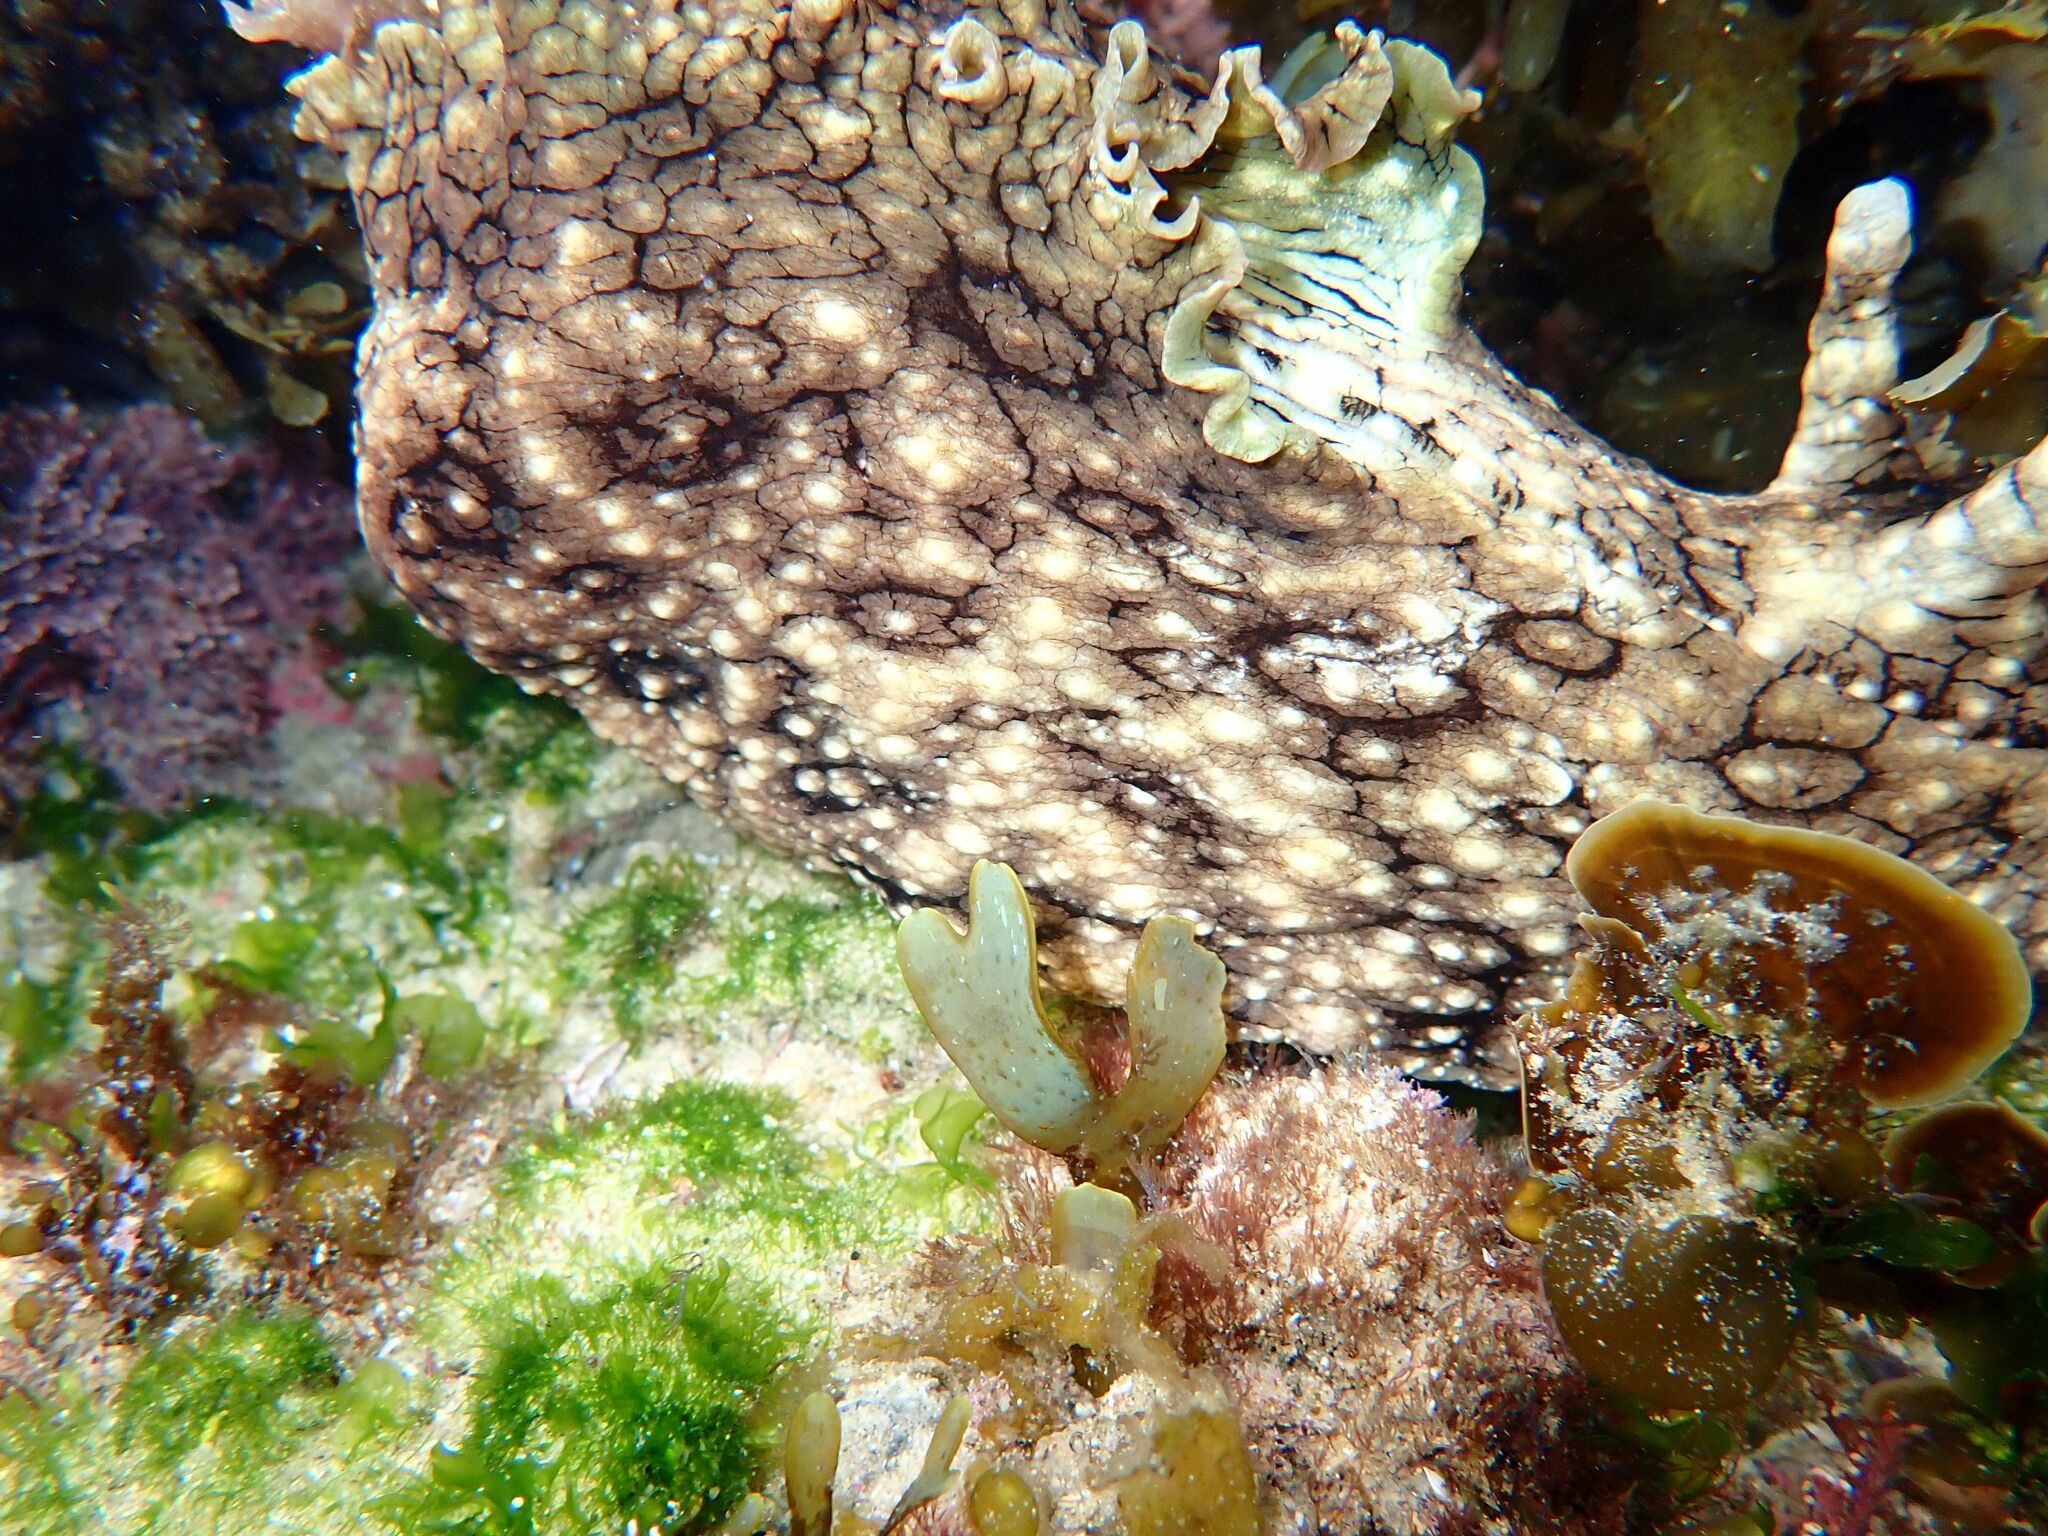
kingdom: Animalia
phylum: Mollusca
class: Gastropoda
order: Aplysiida
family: Aplysiidae
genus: Aplysia
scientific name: Aplysia argus
